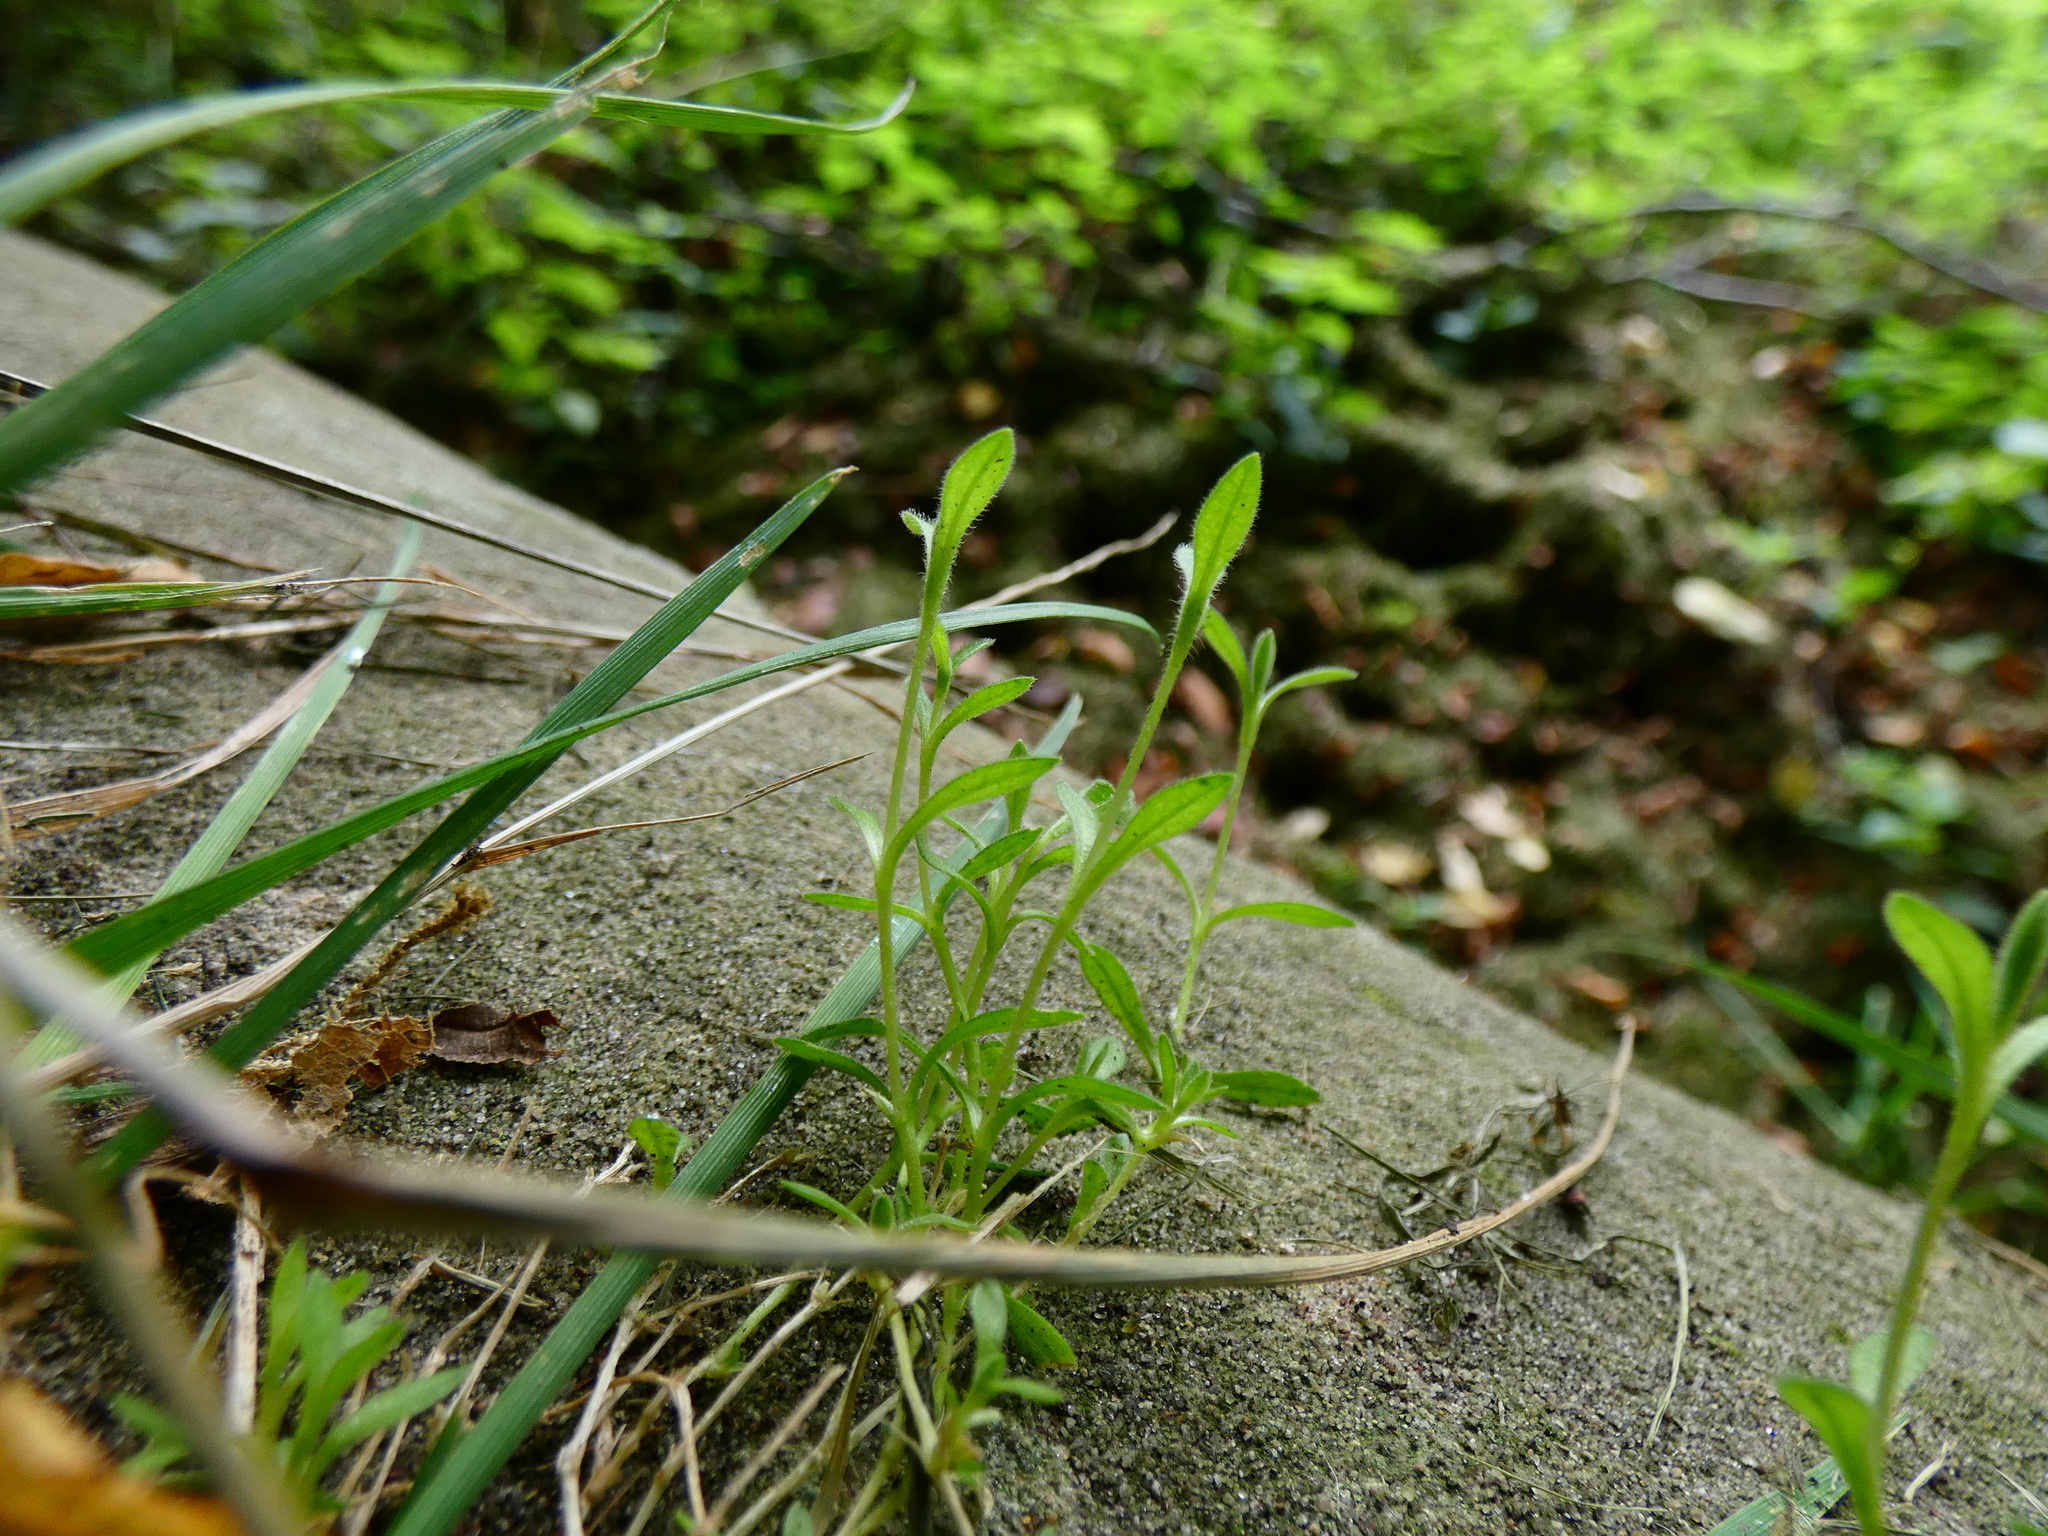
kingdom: Plantae
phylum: Tracheophyta
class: Magnoliopsida
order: Caryophyllales
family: Caryophyllaceae
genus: Cerastium
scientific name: Cerastium arvense
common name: Field mouse-ear
